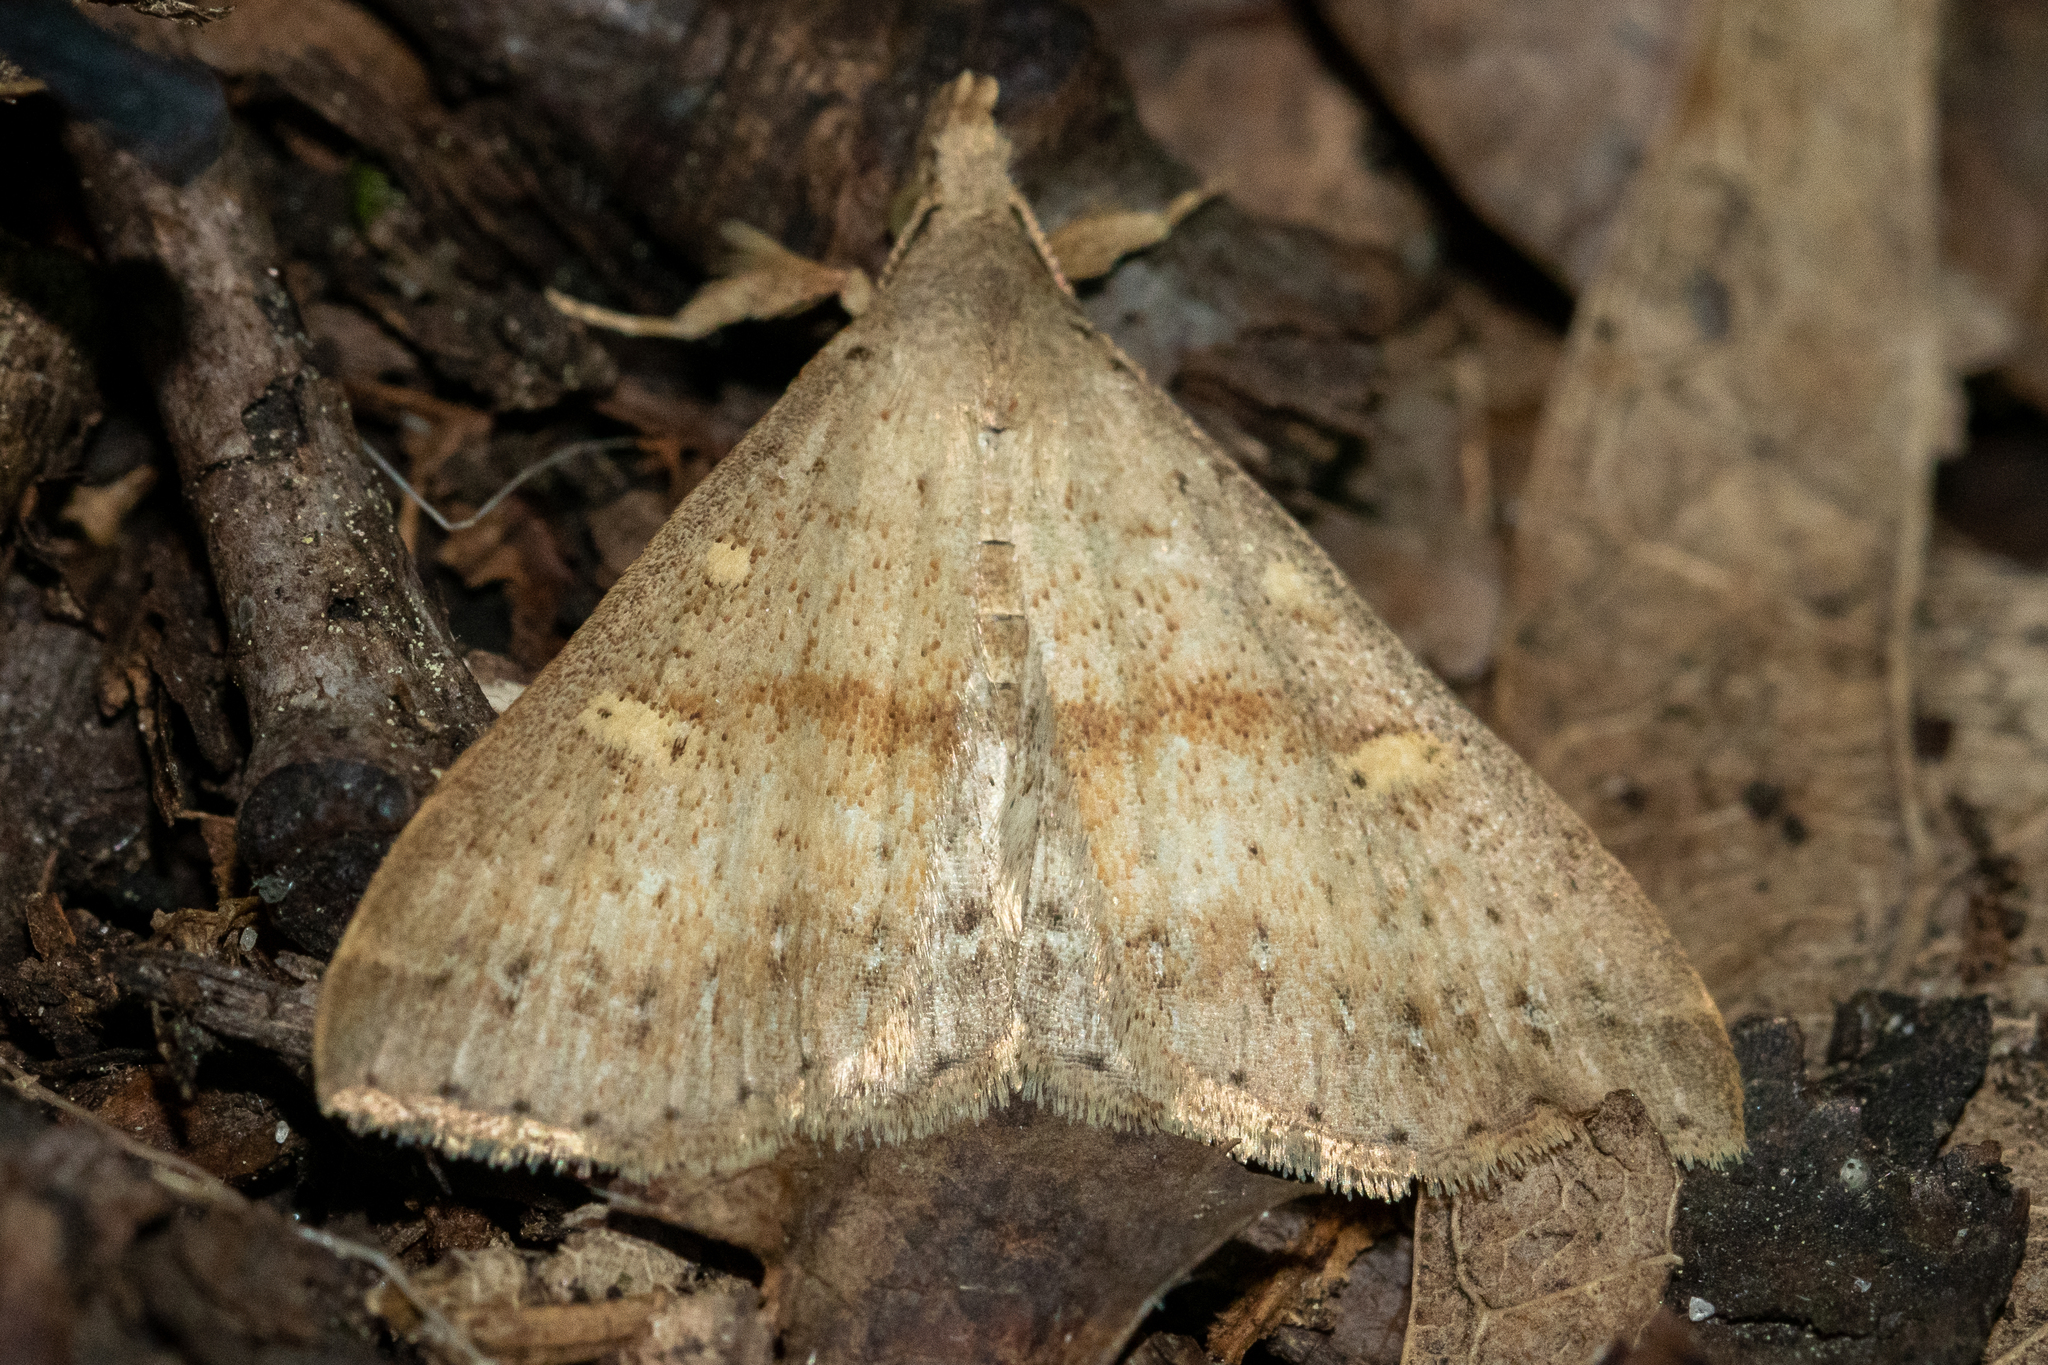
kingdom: Animalia
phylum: Arthropoda
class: Insecta
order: Lepidoptera
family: Erebidae
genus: Renia
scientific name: Renia salusalis
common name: Dotted renia moth
